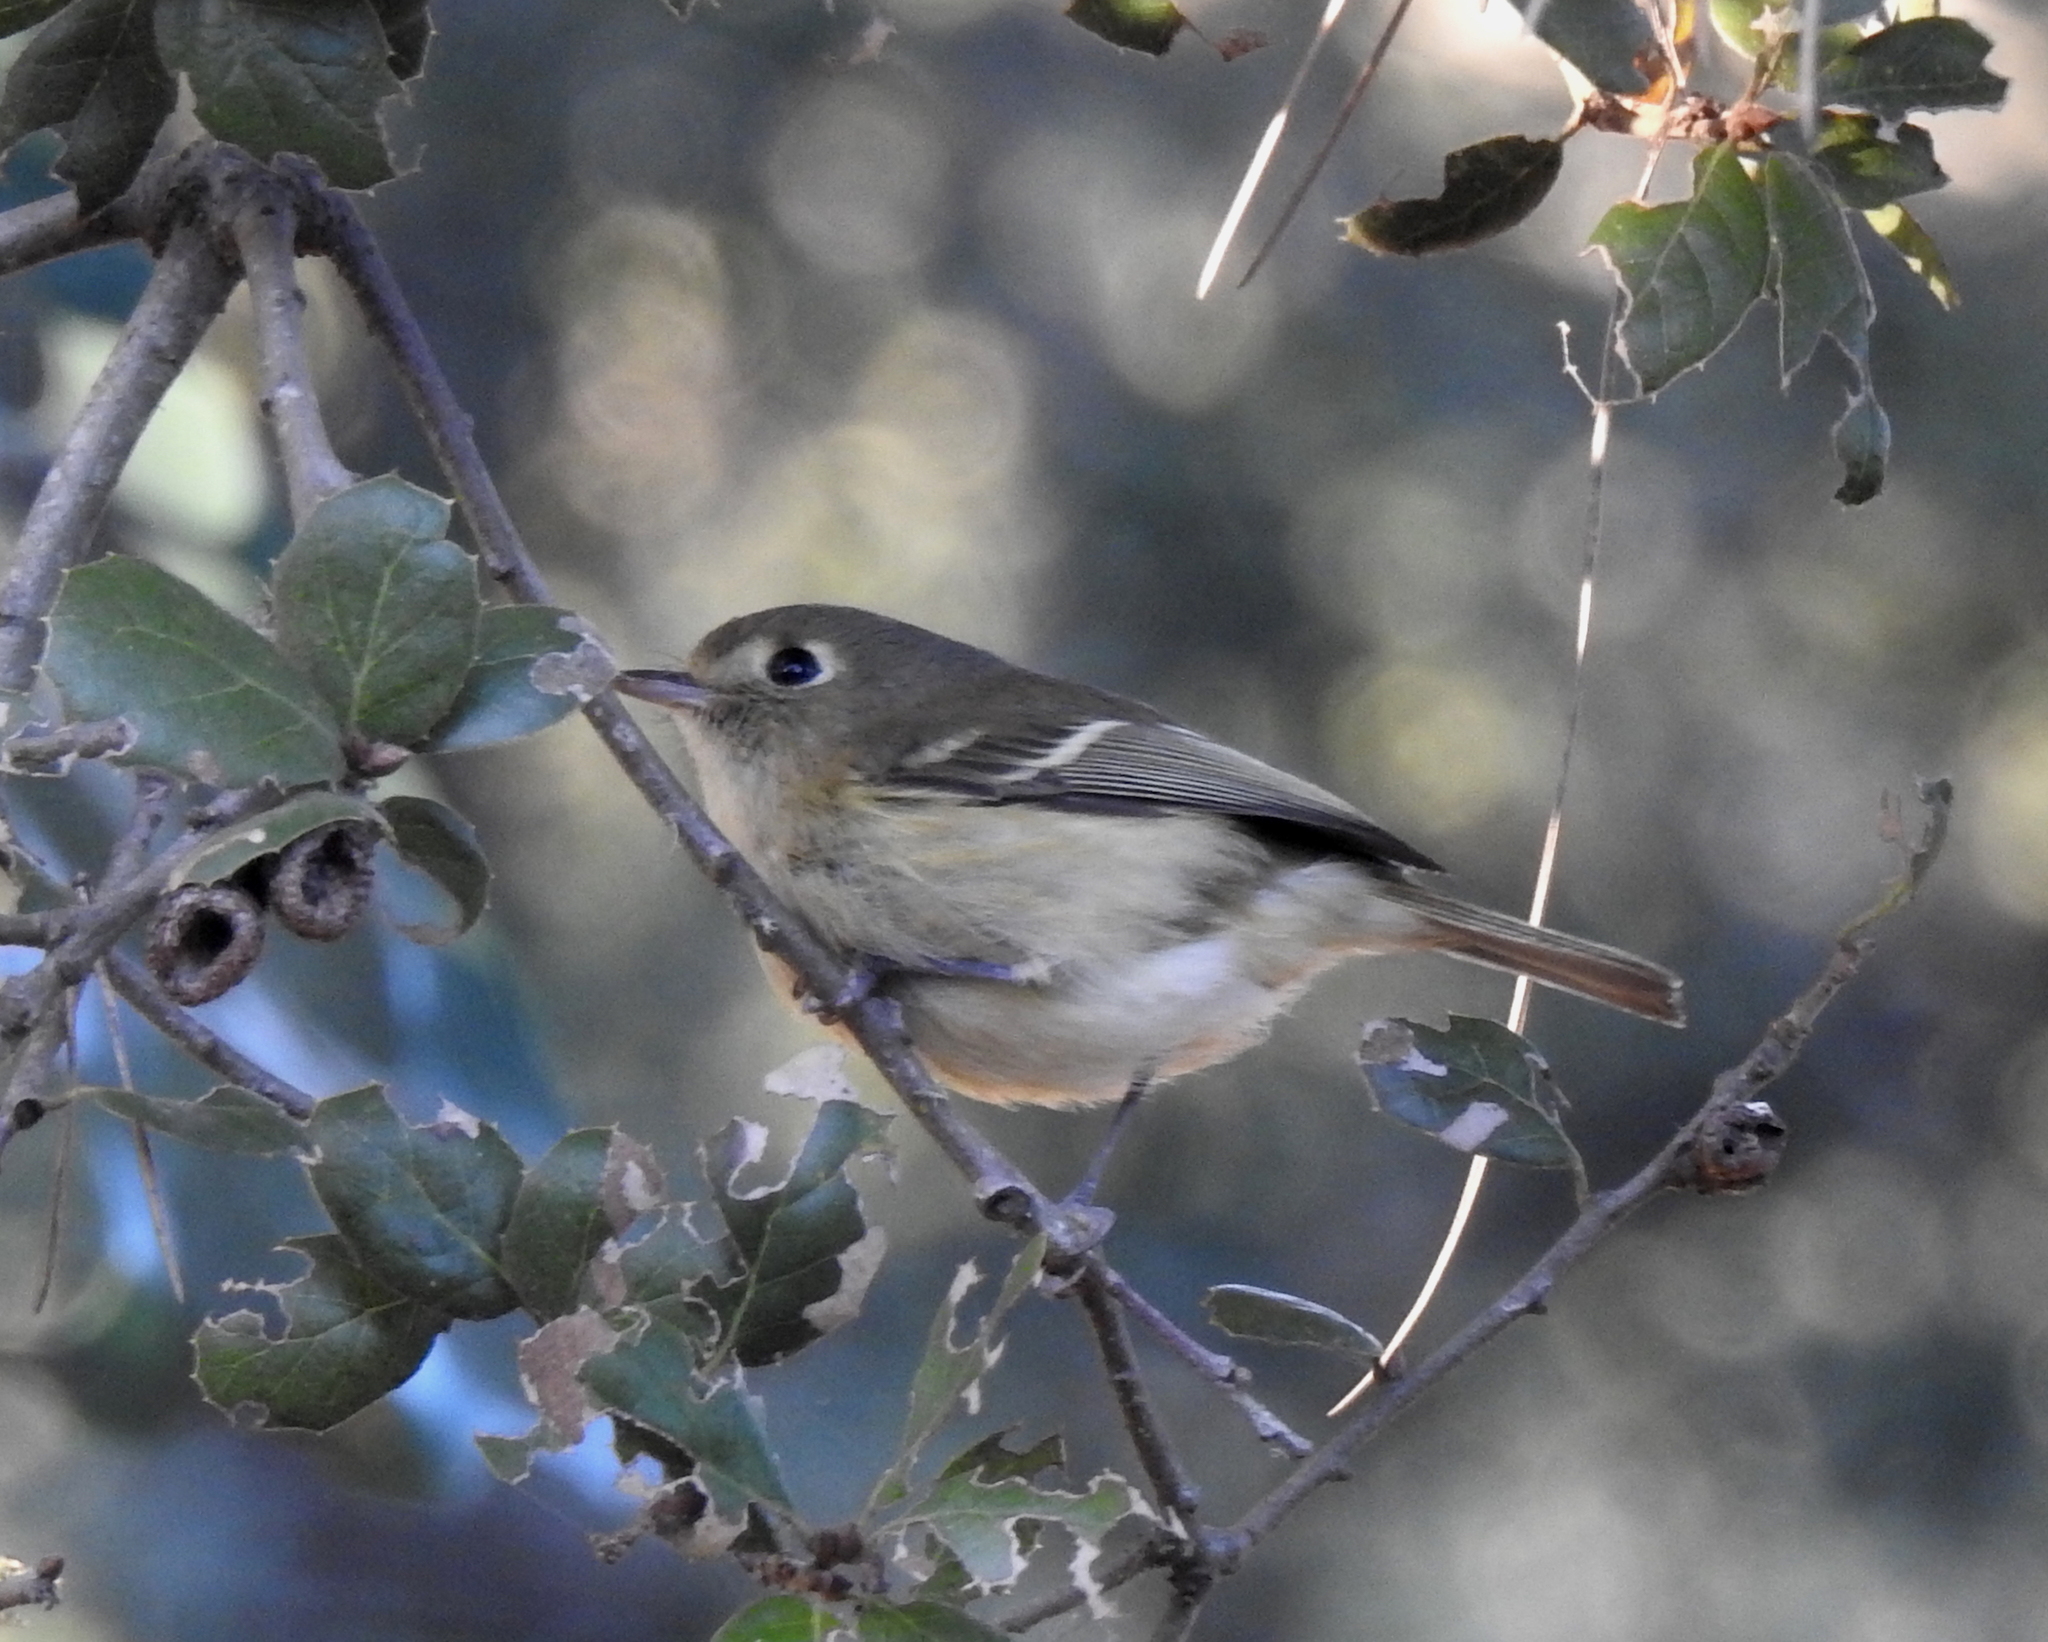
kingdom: Animalia
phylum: Chordata
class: Aves
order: Passeriformes
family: Vireonidae
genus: Vireo
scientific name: Vireo huttoni
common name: Hutton's vireo
